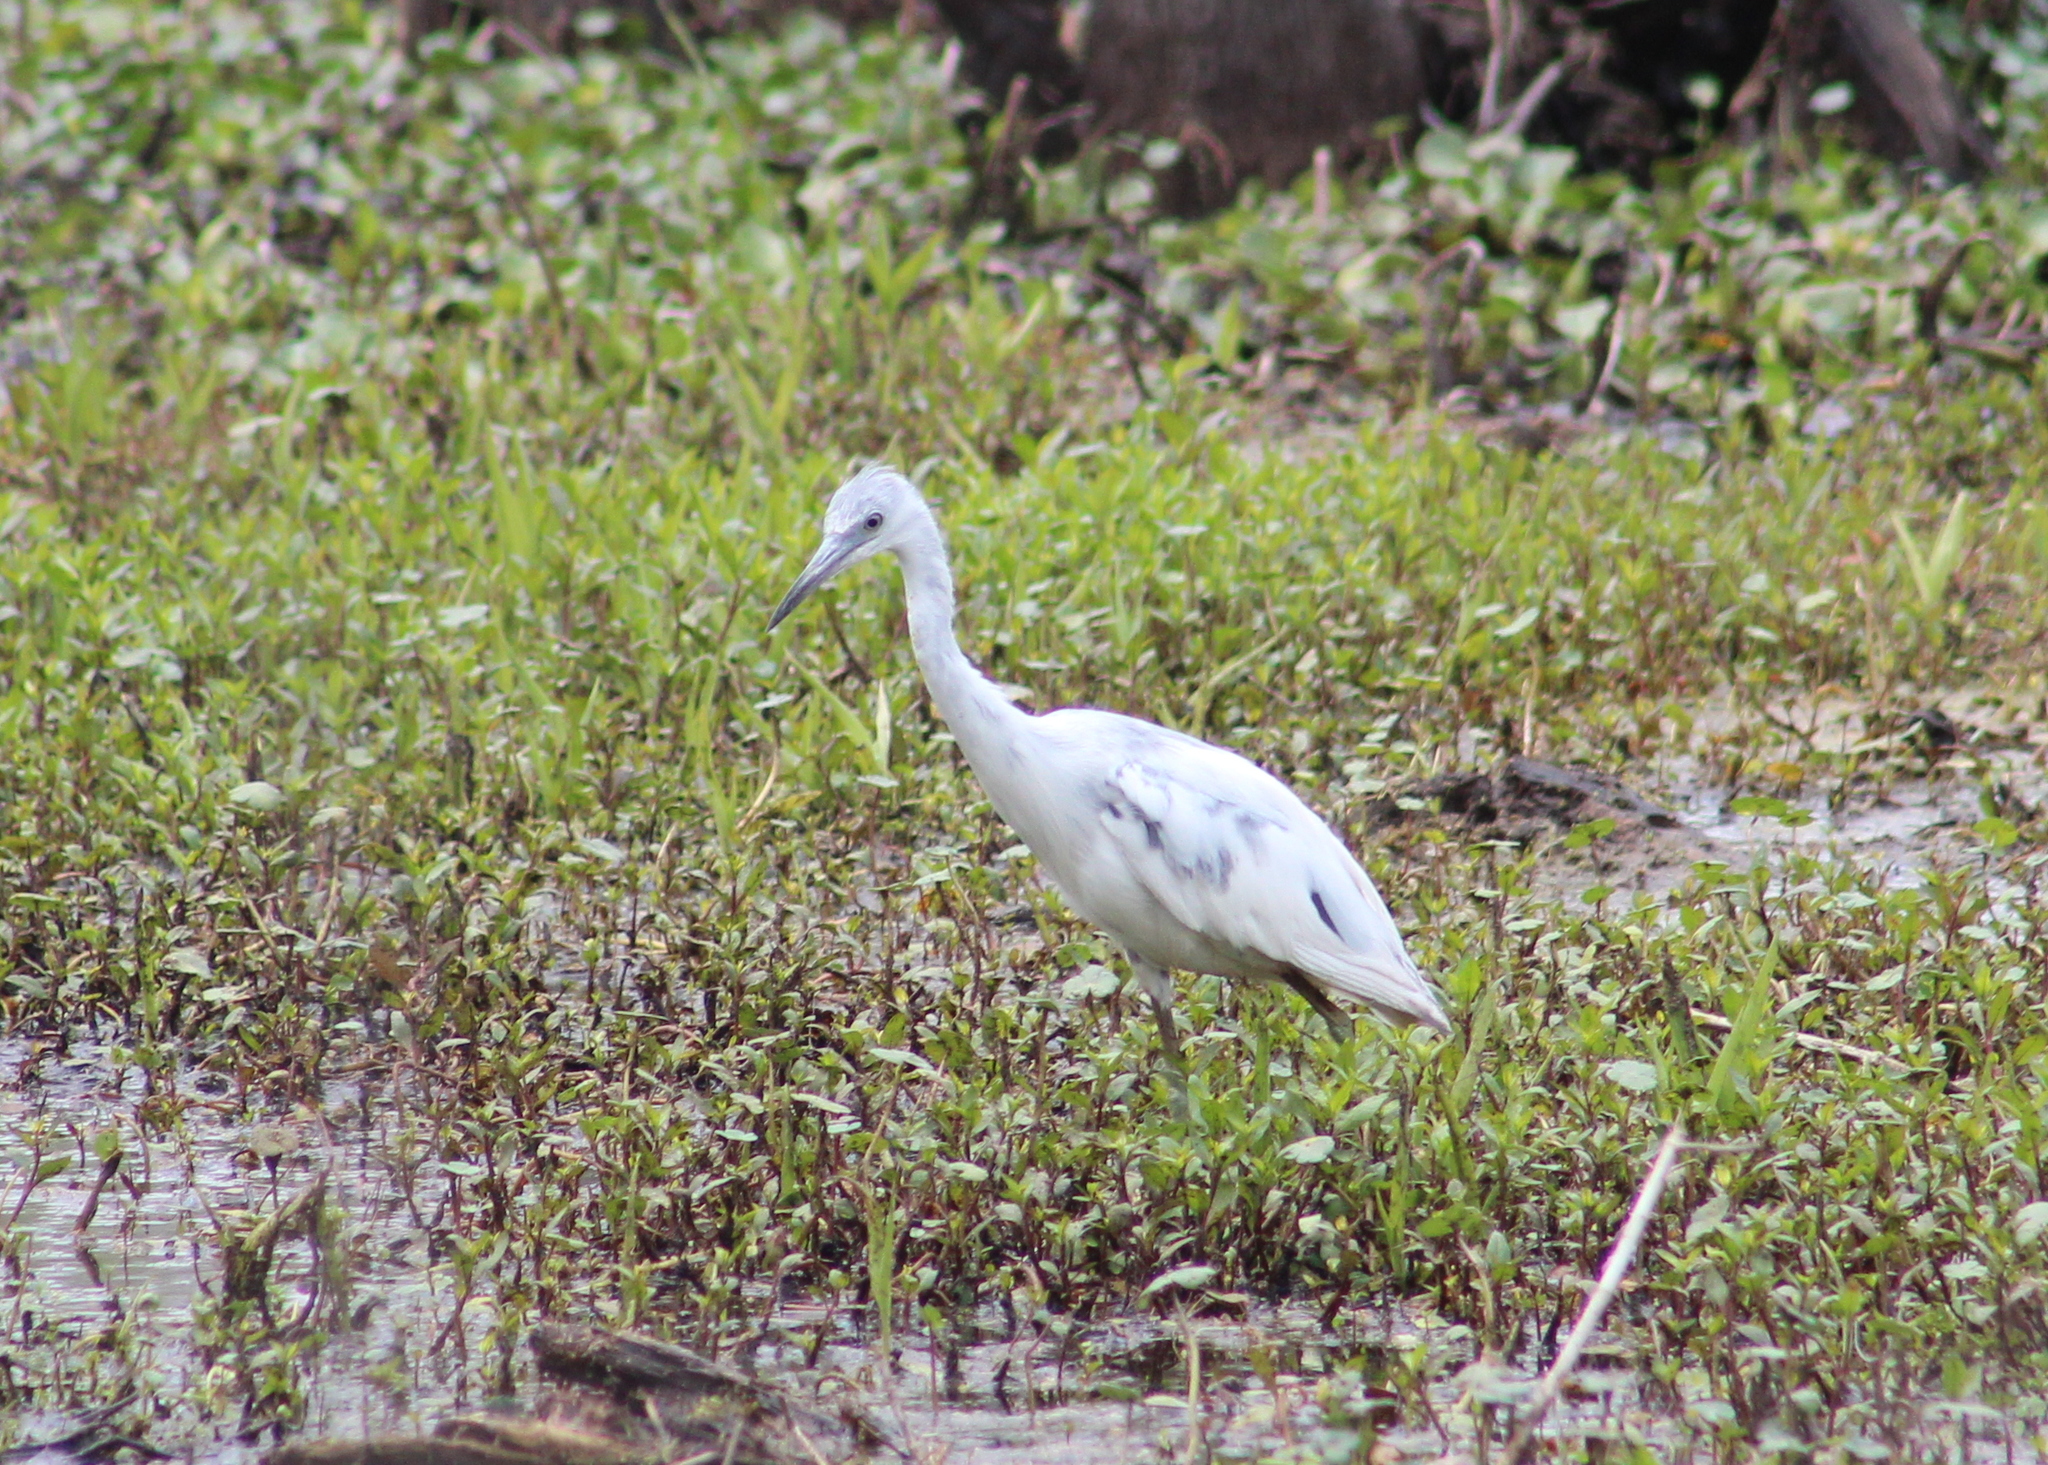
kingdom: Animalia
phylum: Chordata
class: Aves
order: Pelecaniformes
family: Ardeidae
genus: Egretta
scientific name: Egretta caerulea
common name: Little blue heron
